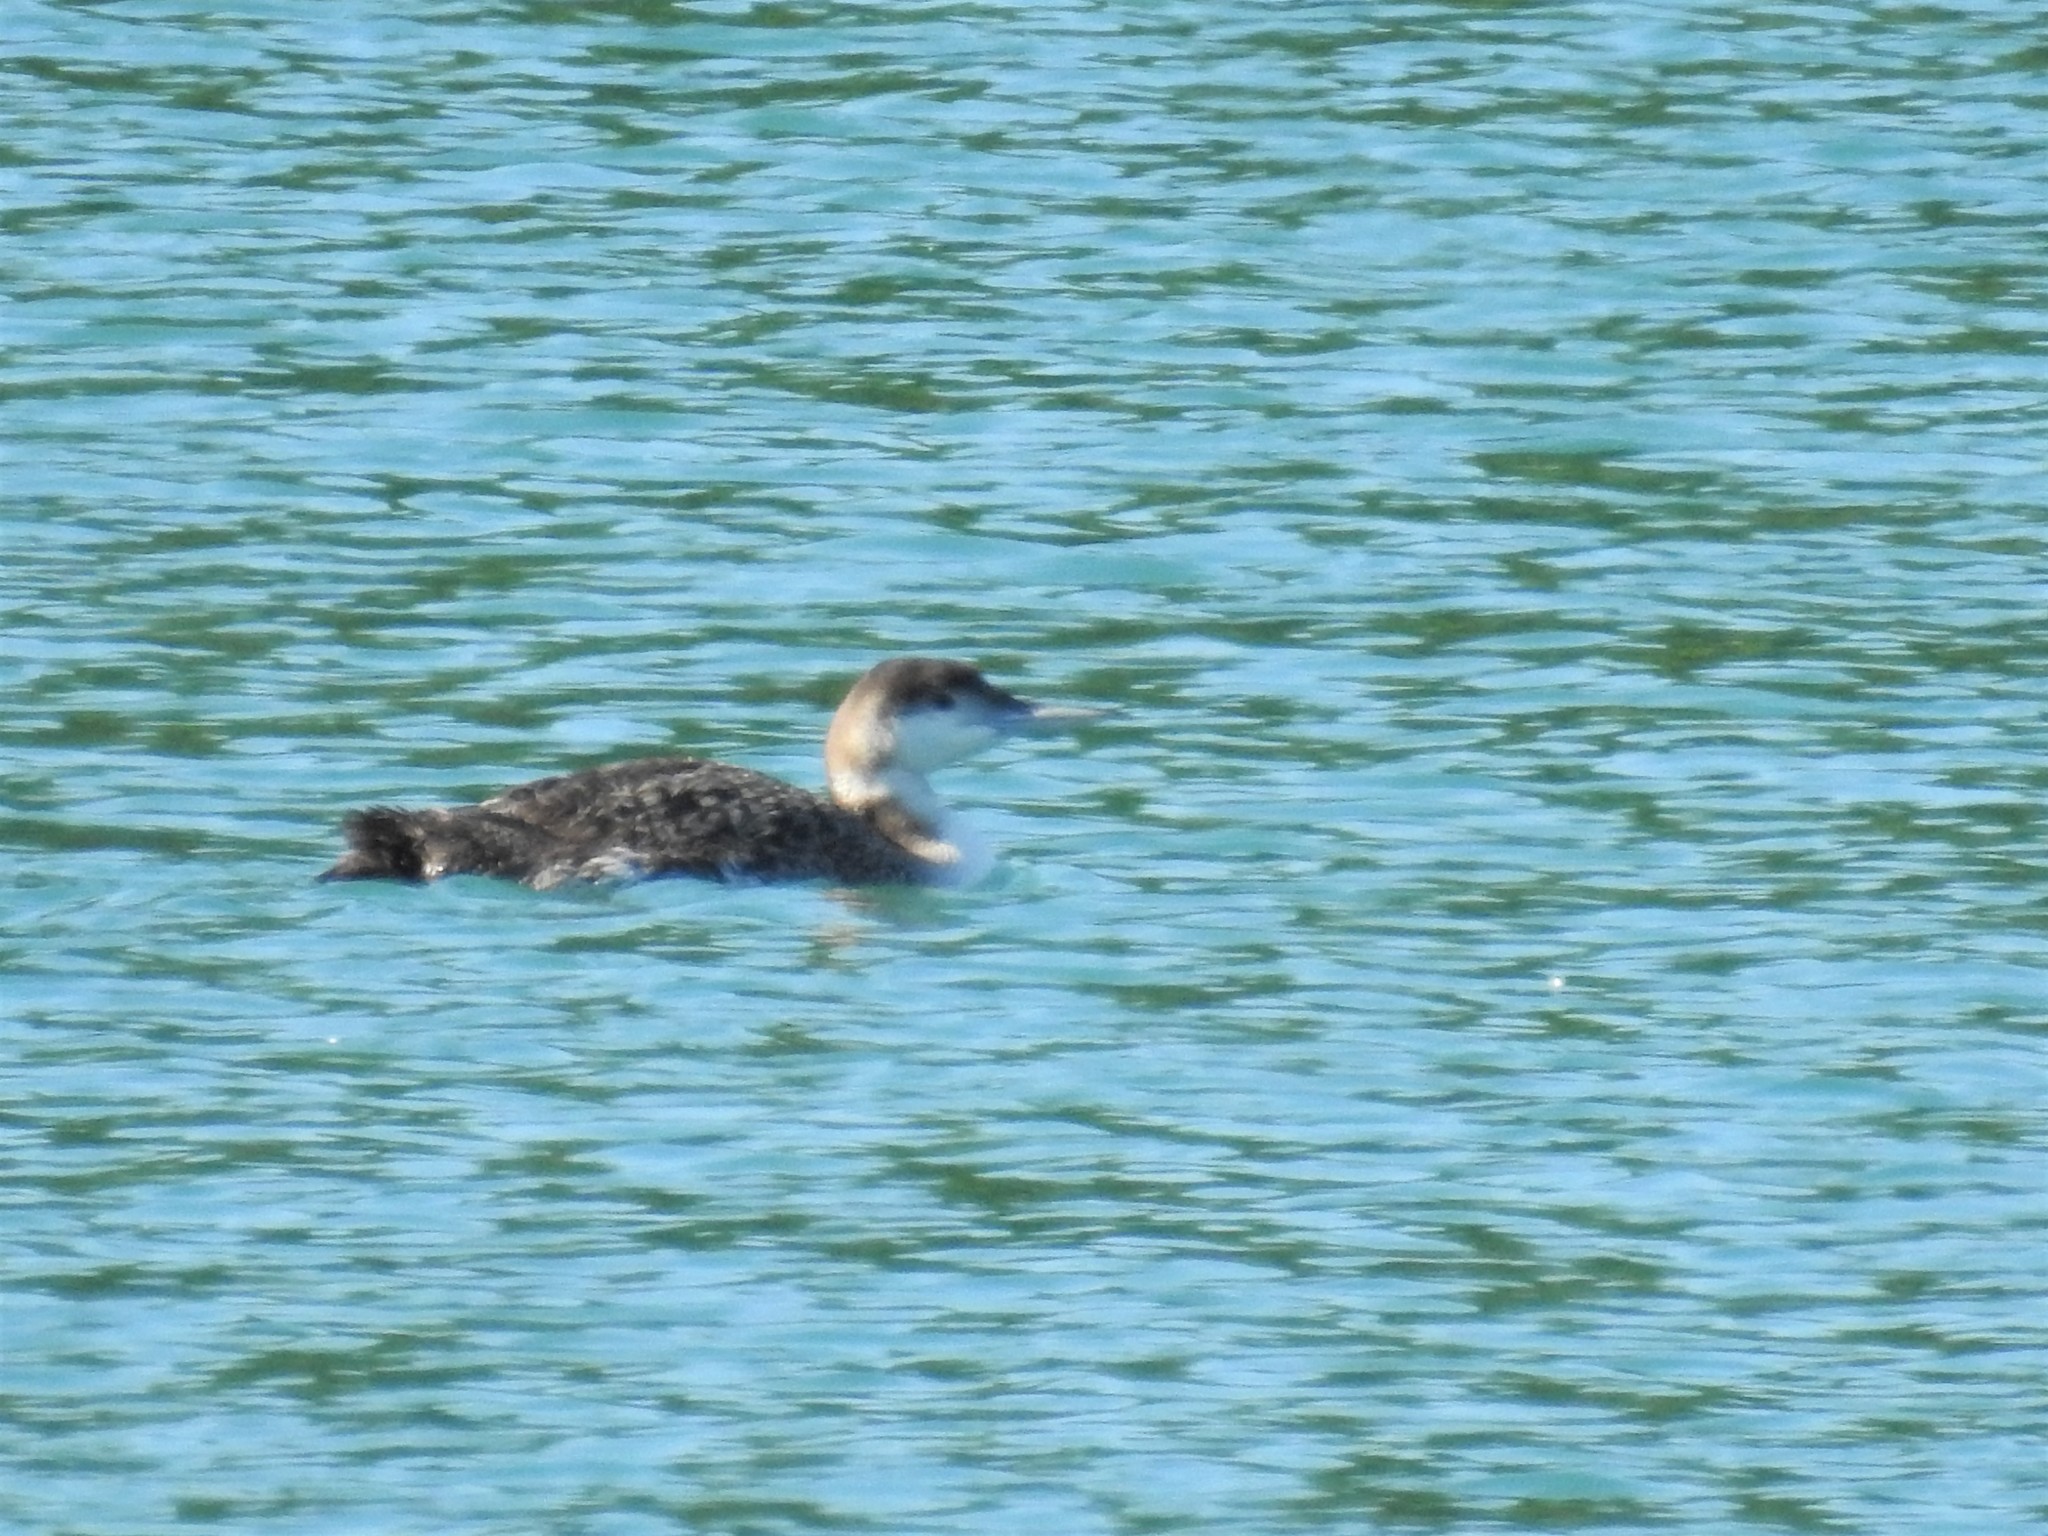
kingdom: Animalia
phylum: Chordata
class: Aves
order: Gaviiformes
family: Gaviidae
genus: Gavia
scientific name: Gavia immer
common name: Common loon
